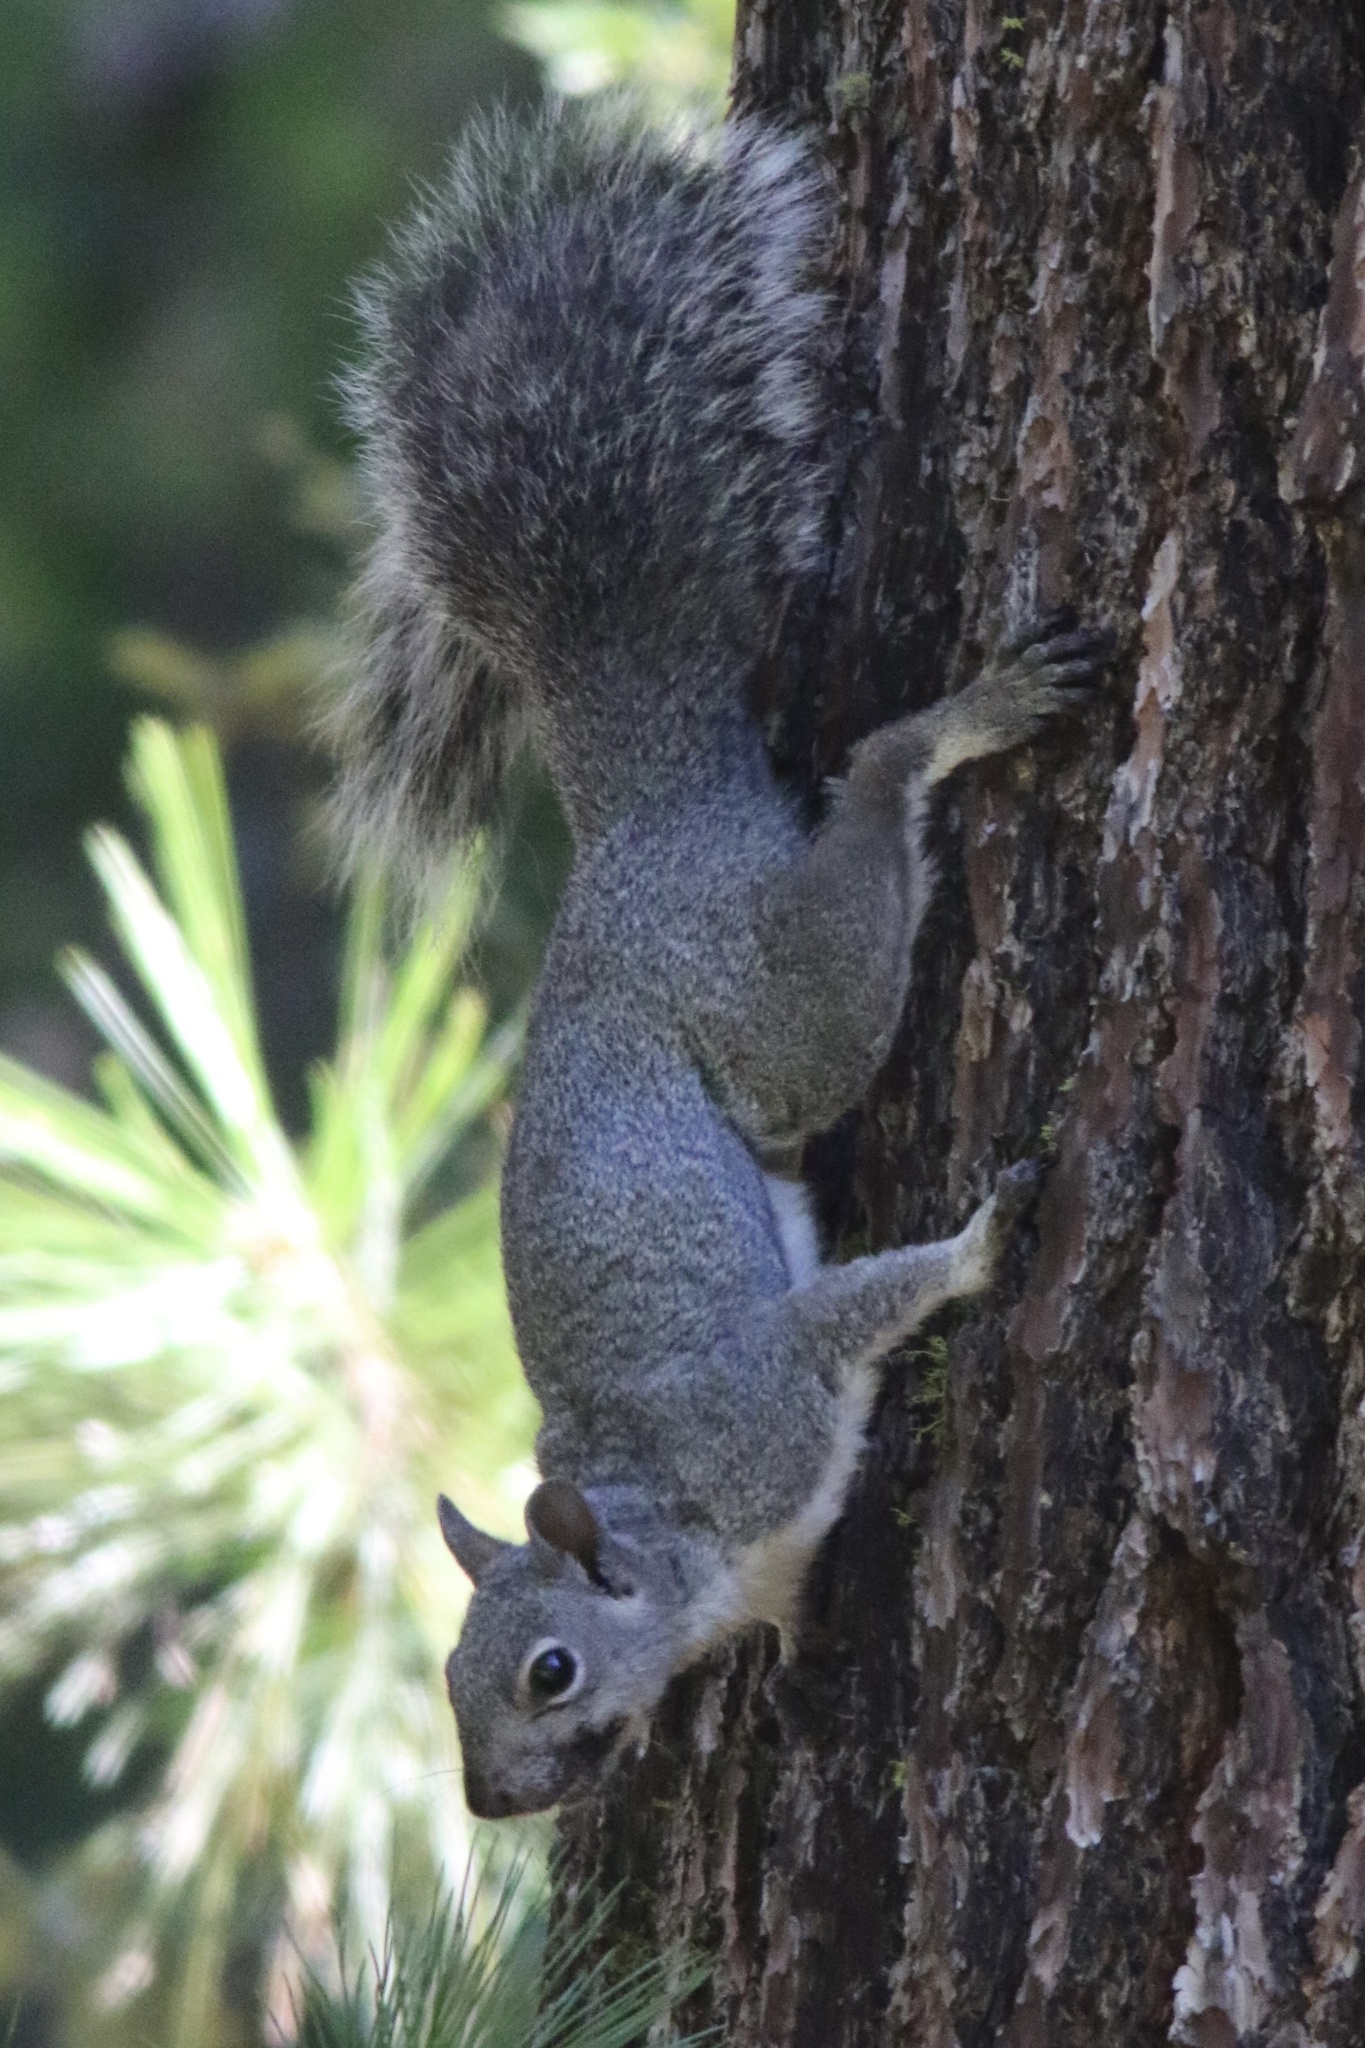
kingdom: Animalia
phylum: Chordata
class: Mammalia
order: Rodentia
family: Sciuridae
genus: Sciurus
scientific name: Sciurus griseus
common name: Western gray squirrel
